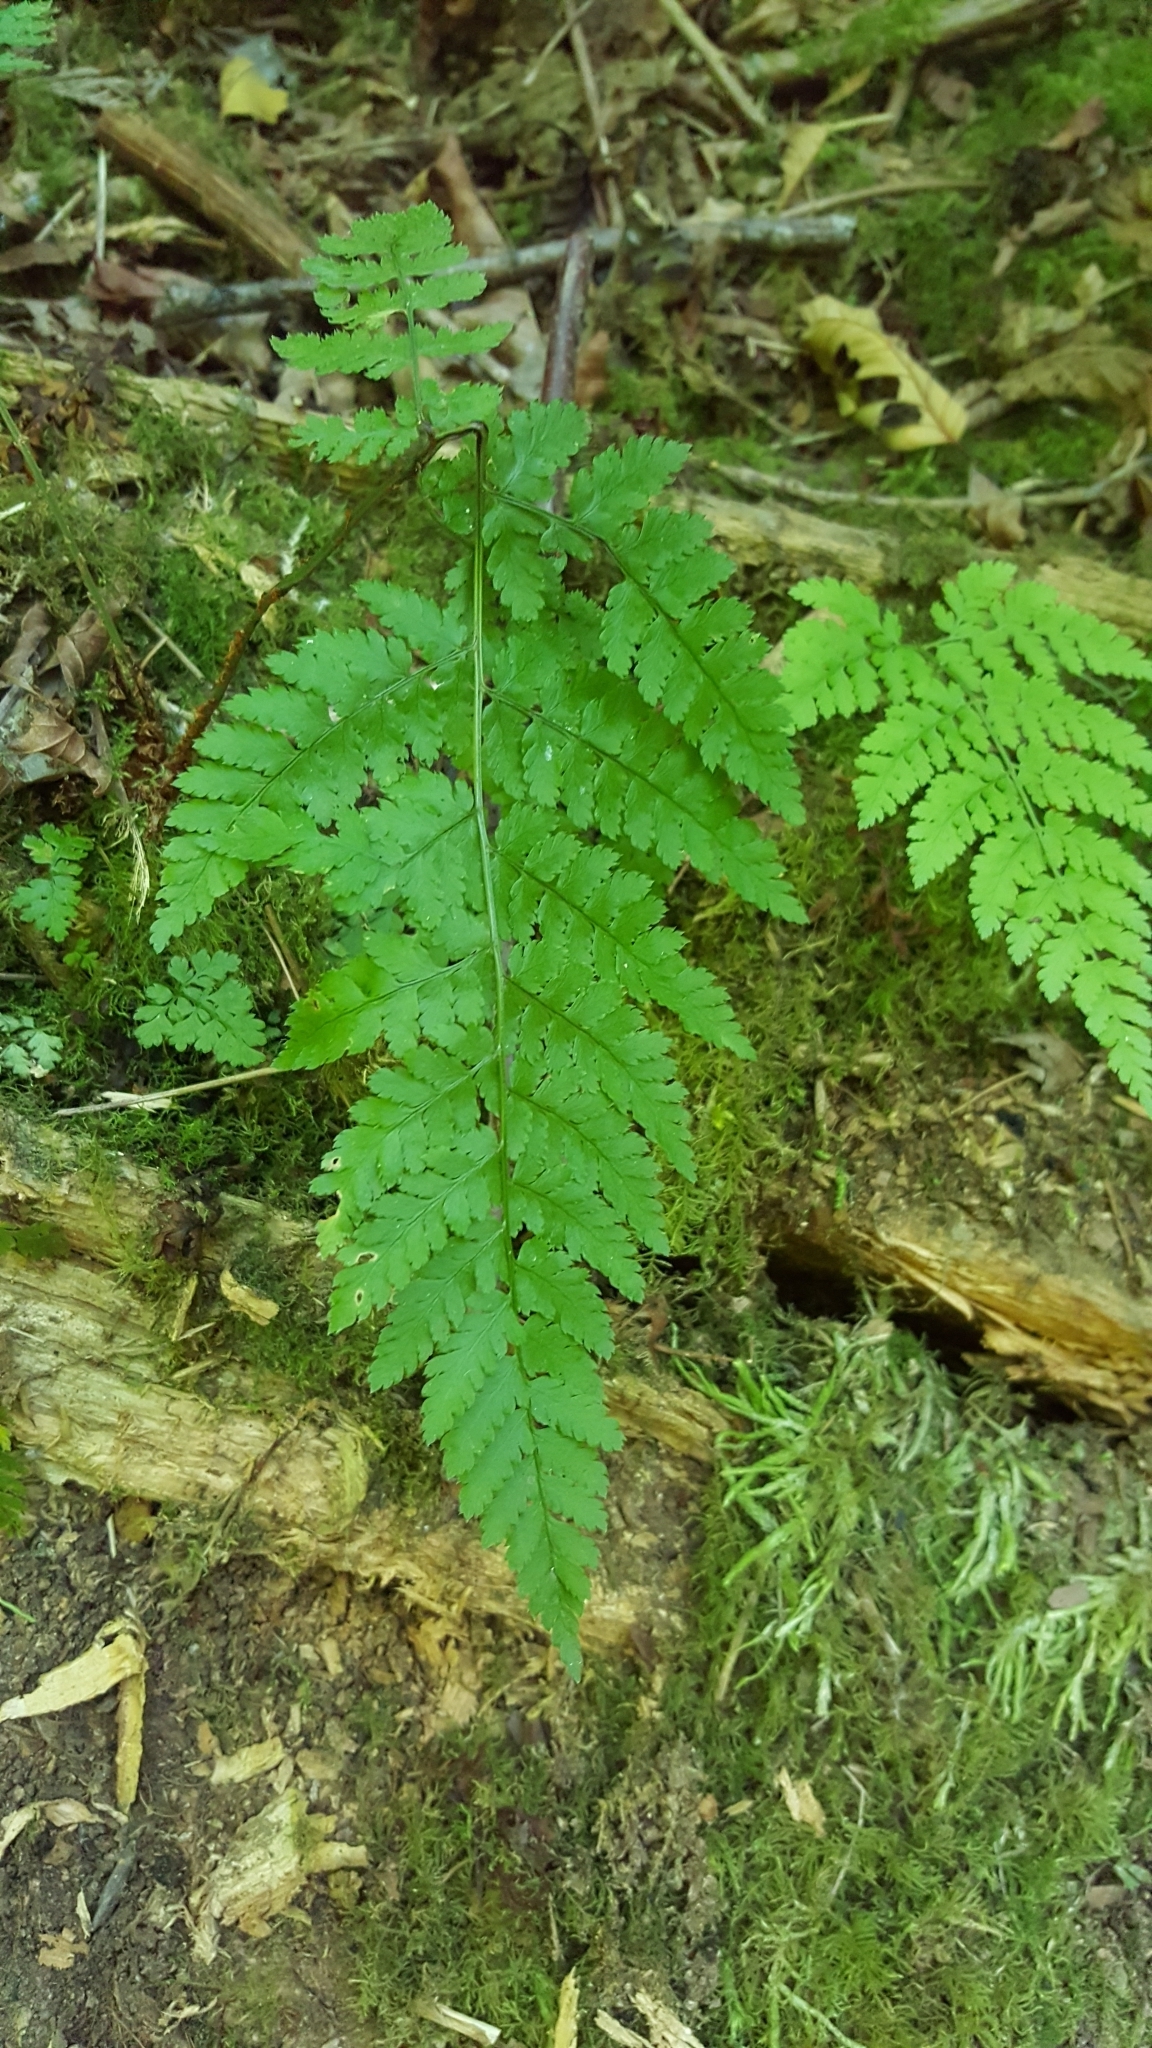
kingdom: Plantae
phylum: Tracheophyta
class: Polypodiopsida
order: Polypodiales
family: Dryopteridaceae
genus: Dryopteris
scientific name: Dryopteris expansa
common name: Northern buckler fern
